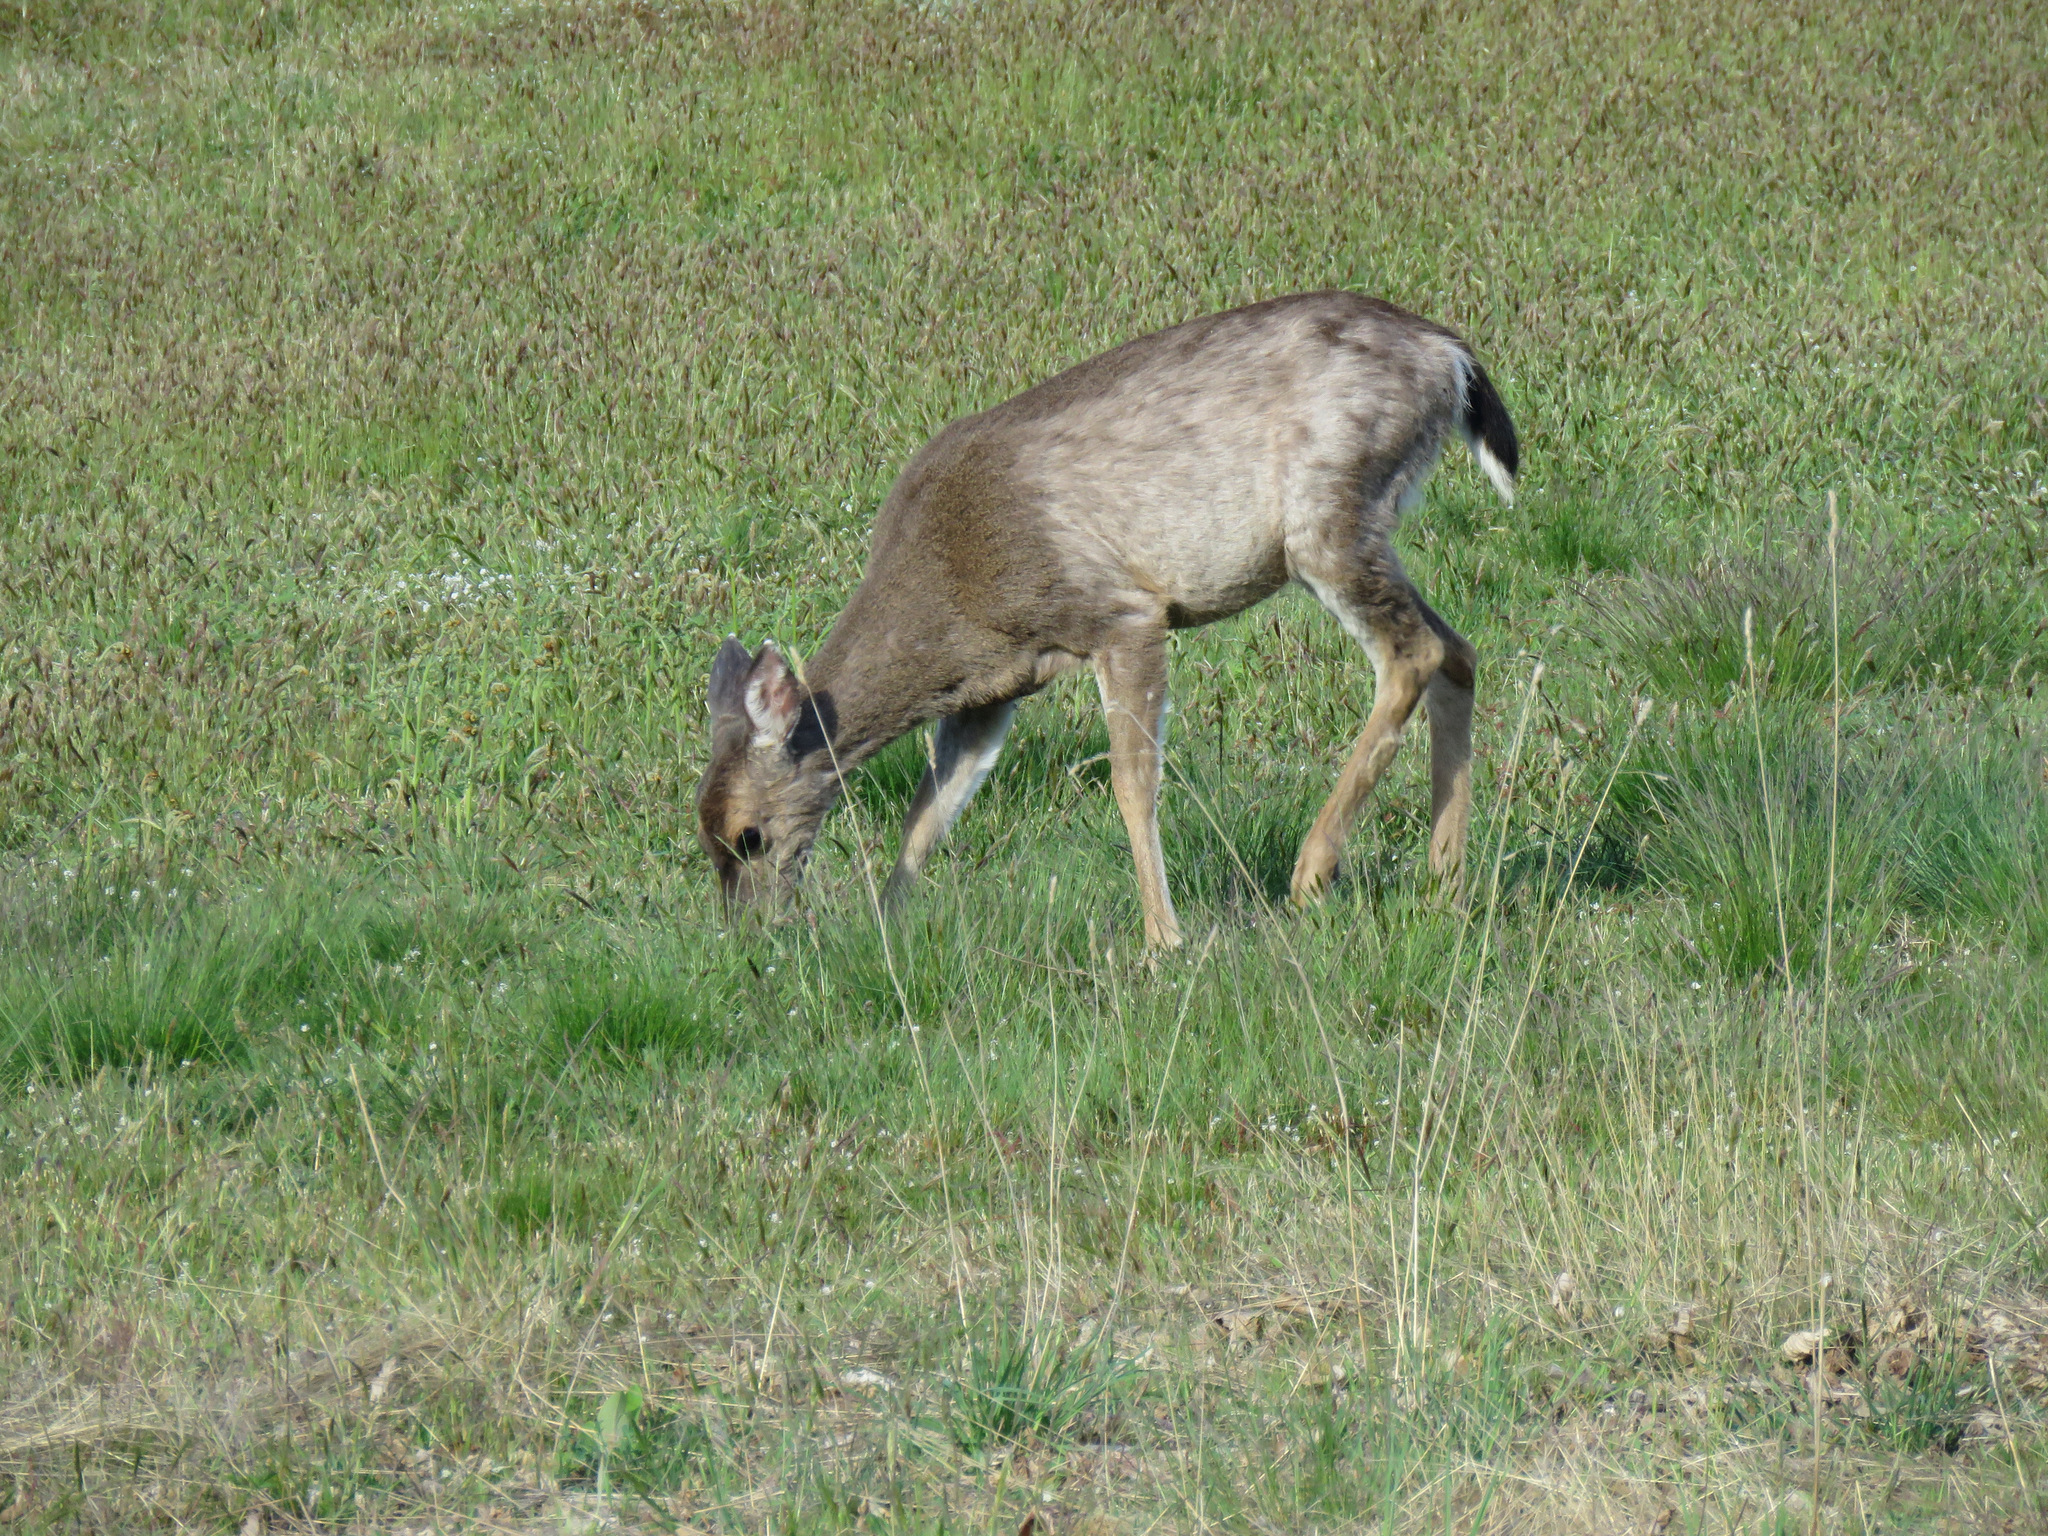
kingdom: Animalia
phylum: Chordata
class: Mammalia
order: Artiodactyla
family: Cervidae
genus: Odocoileus
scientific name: Odocoileus hemionus
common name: Mule deer
